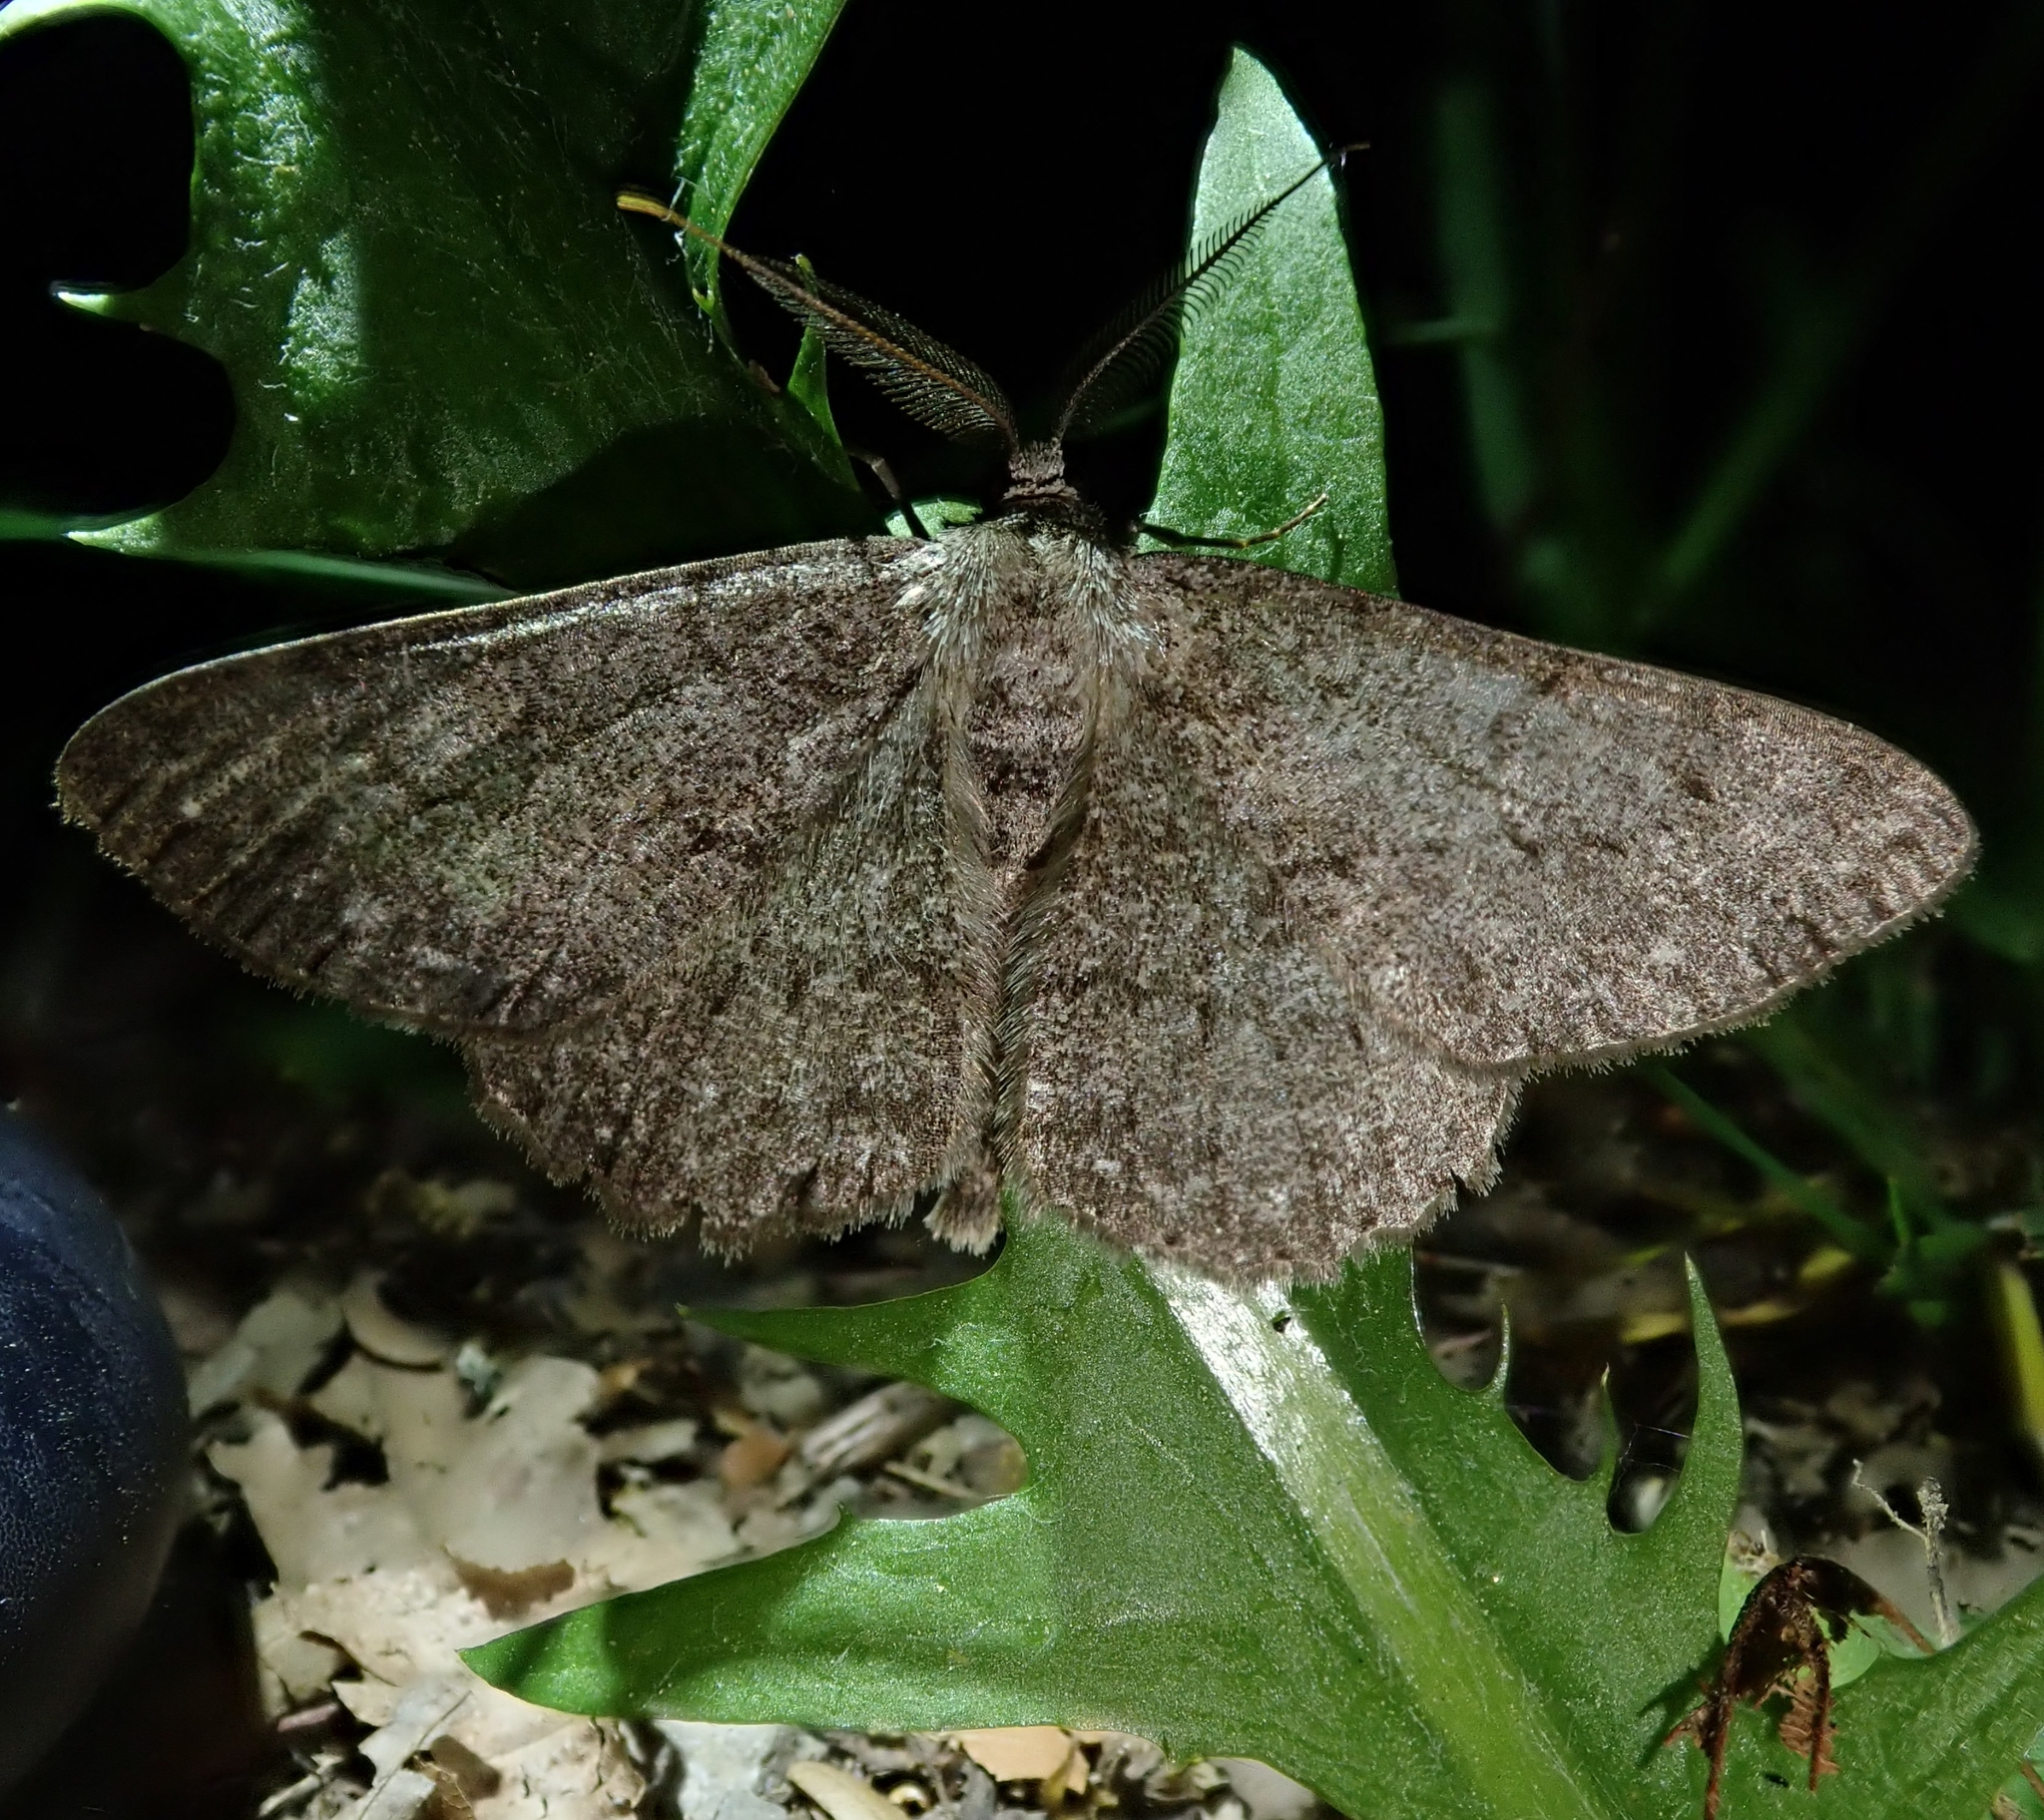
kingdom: Animalia
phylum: Arthropoda
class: Insecta
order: Lepidoptera
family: Geometridae
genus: Hypomecis
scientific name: Hypomecis punctinalis
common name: Pale oak beauty
